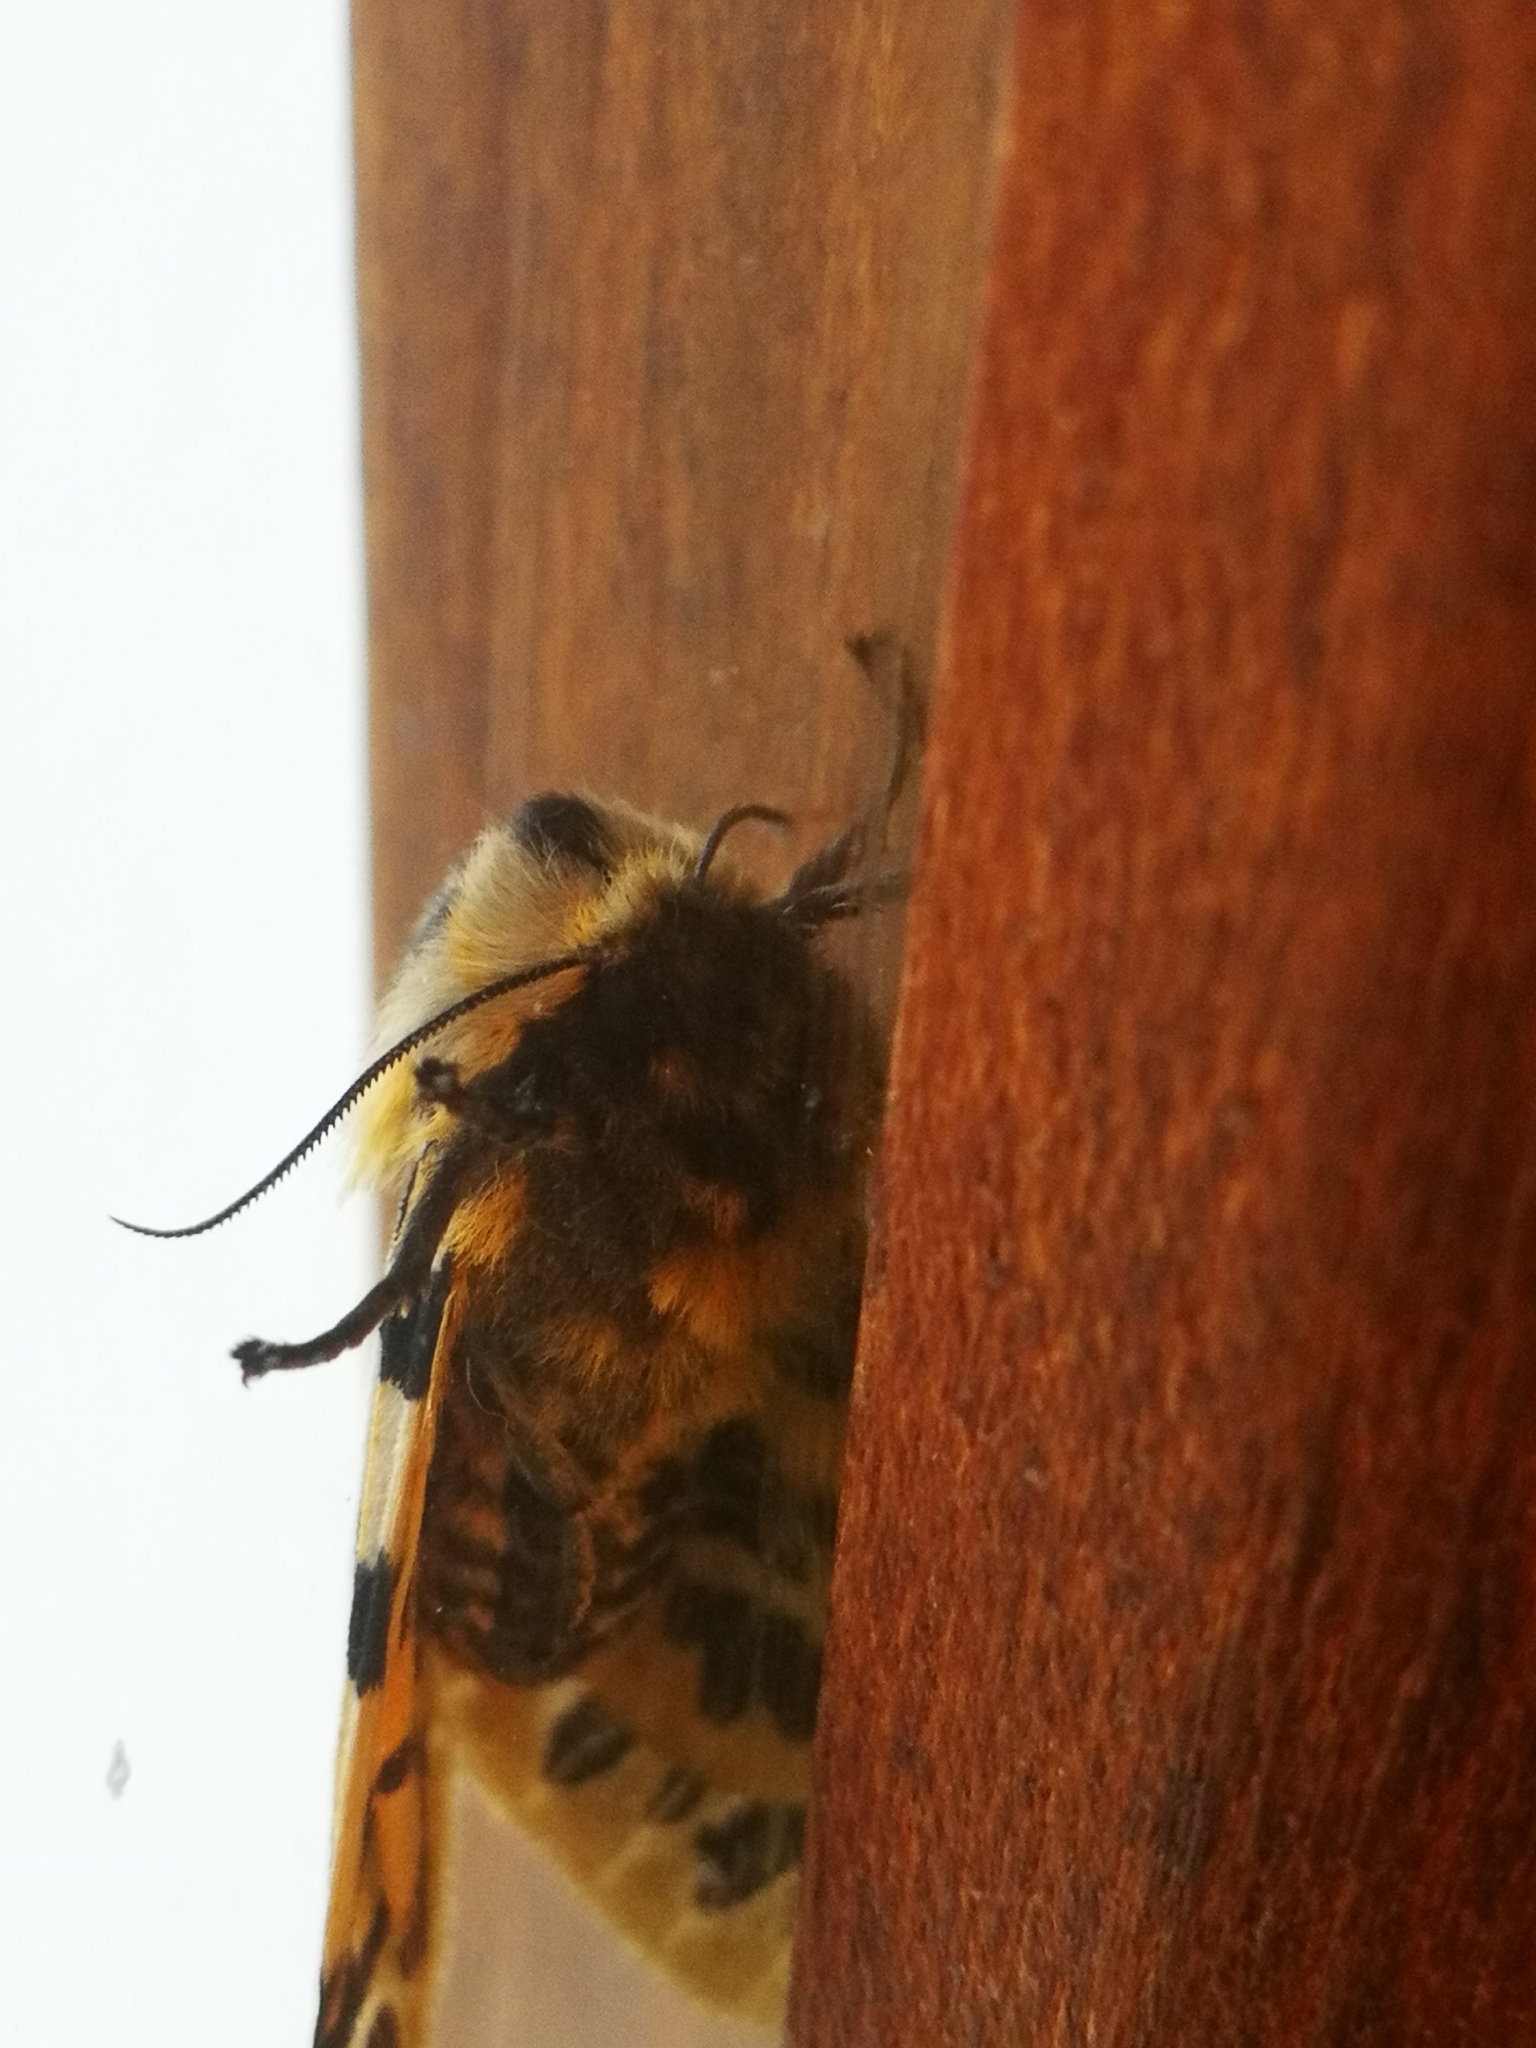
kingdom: Animalia
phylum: Arthropoda
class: Insecta
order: Lepidoptera
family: Erebidae
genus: Hypercompe
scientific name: Hypercompe nemophila
